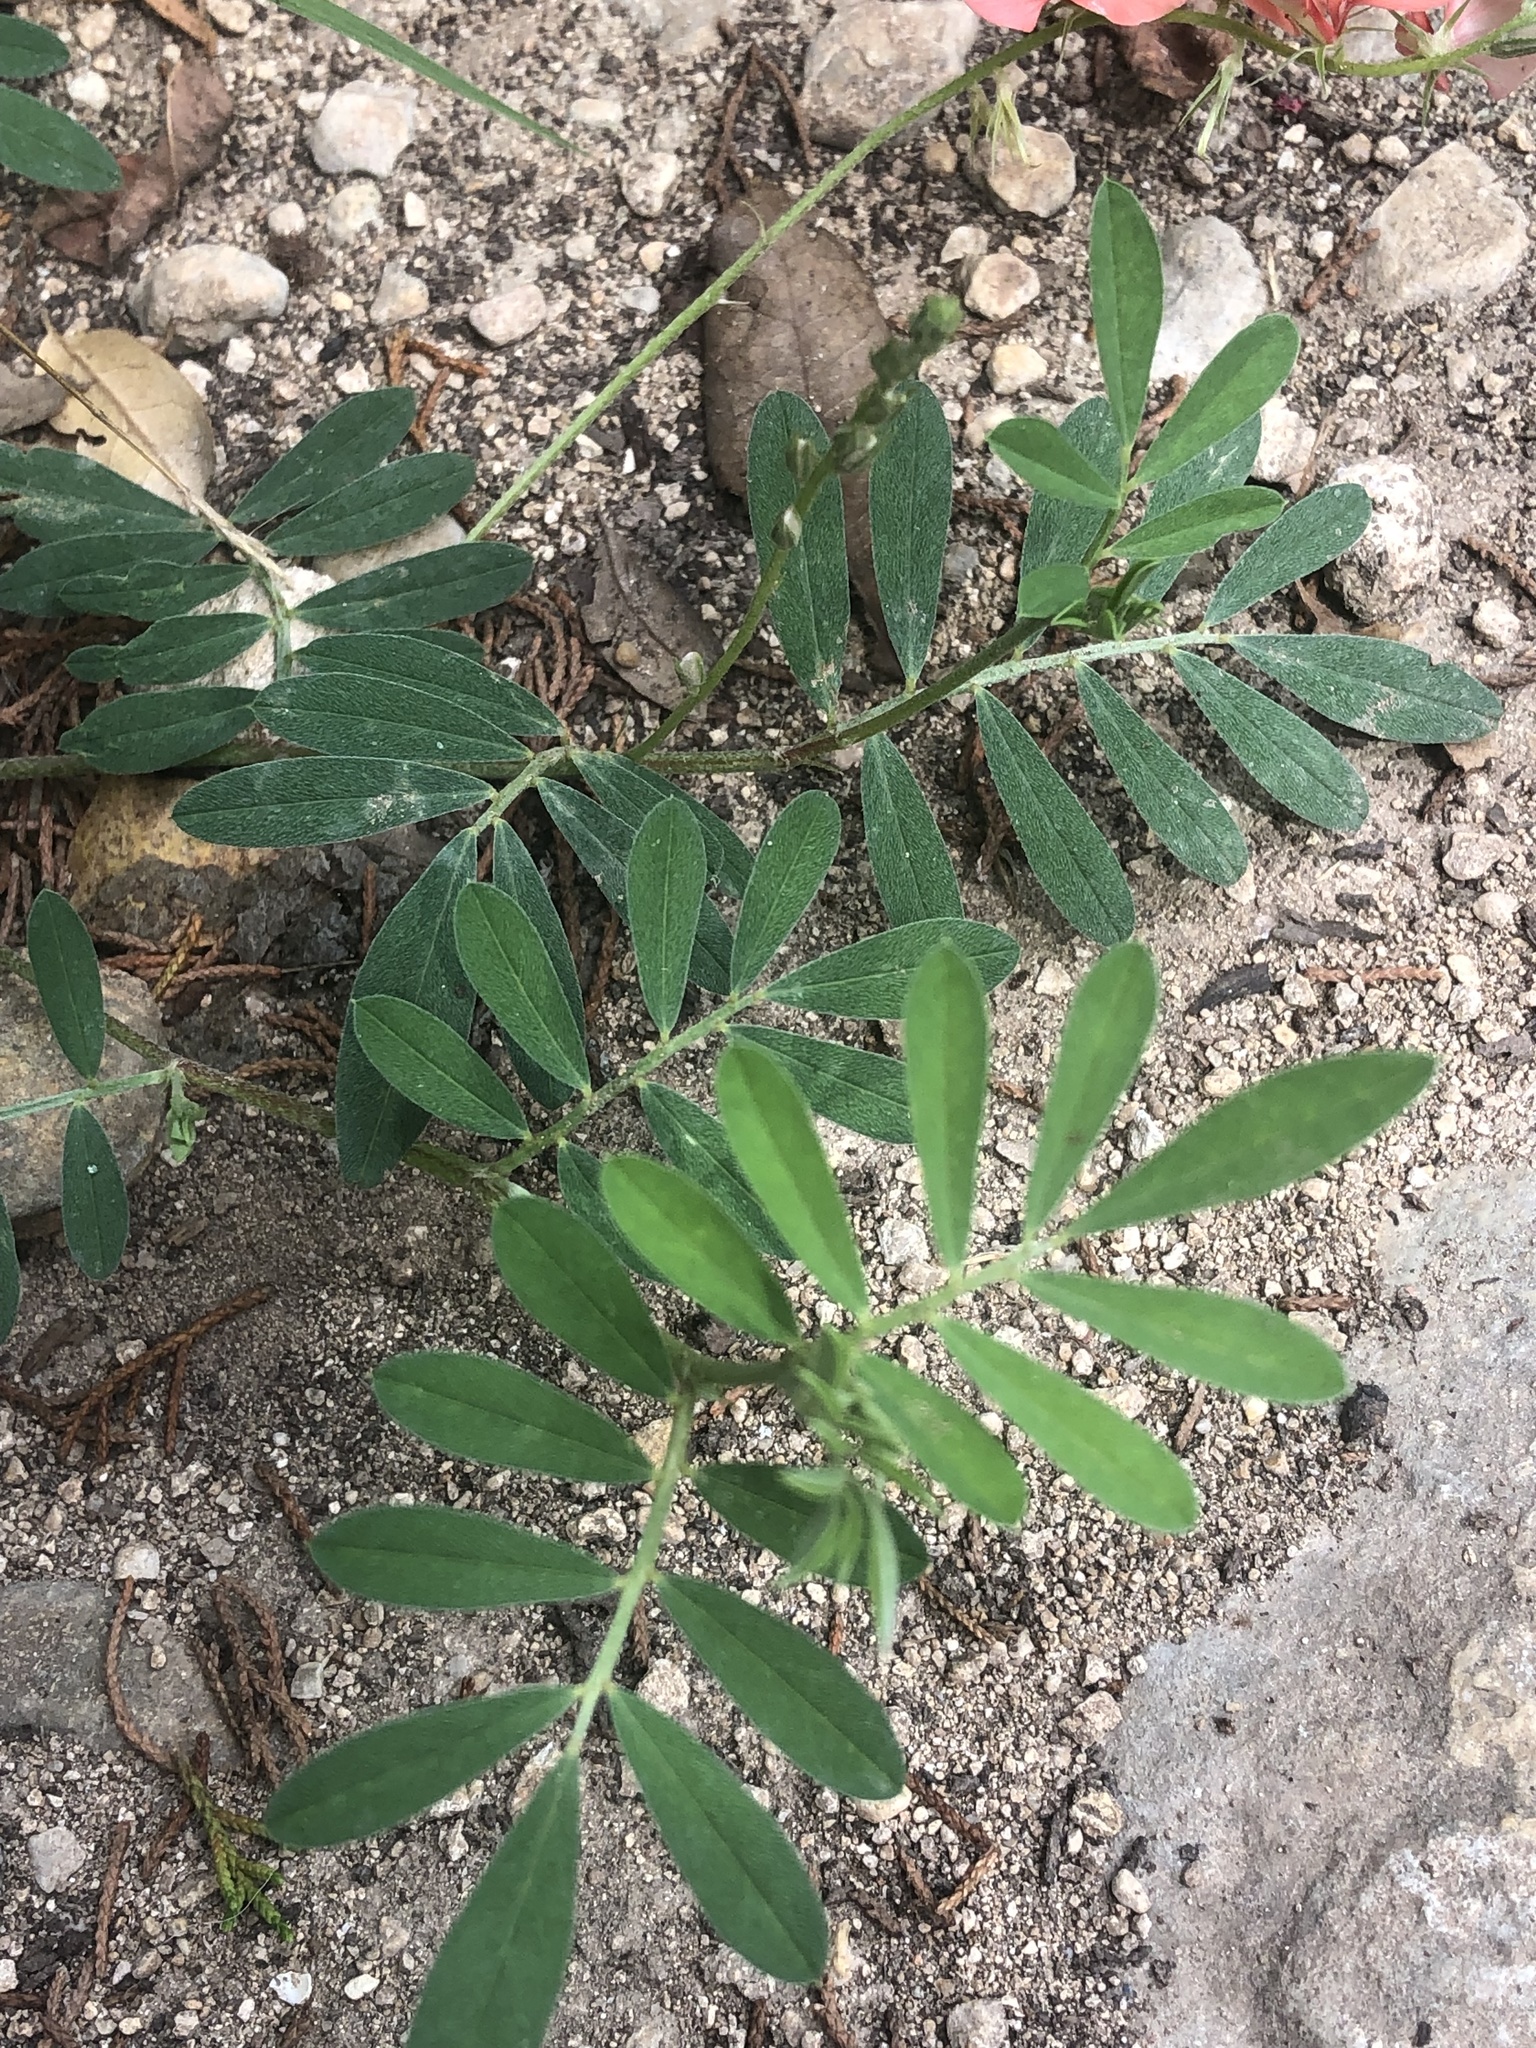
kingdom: Plantae
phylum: Tracheophyta
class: Magnoliopsida
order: Fabales
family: Fabaceae
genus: Indigofera
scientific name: Indigofera miniata
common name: Coast indigo
